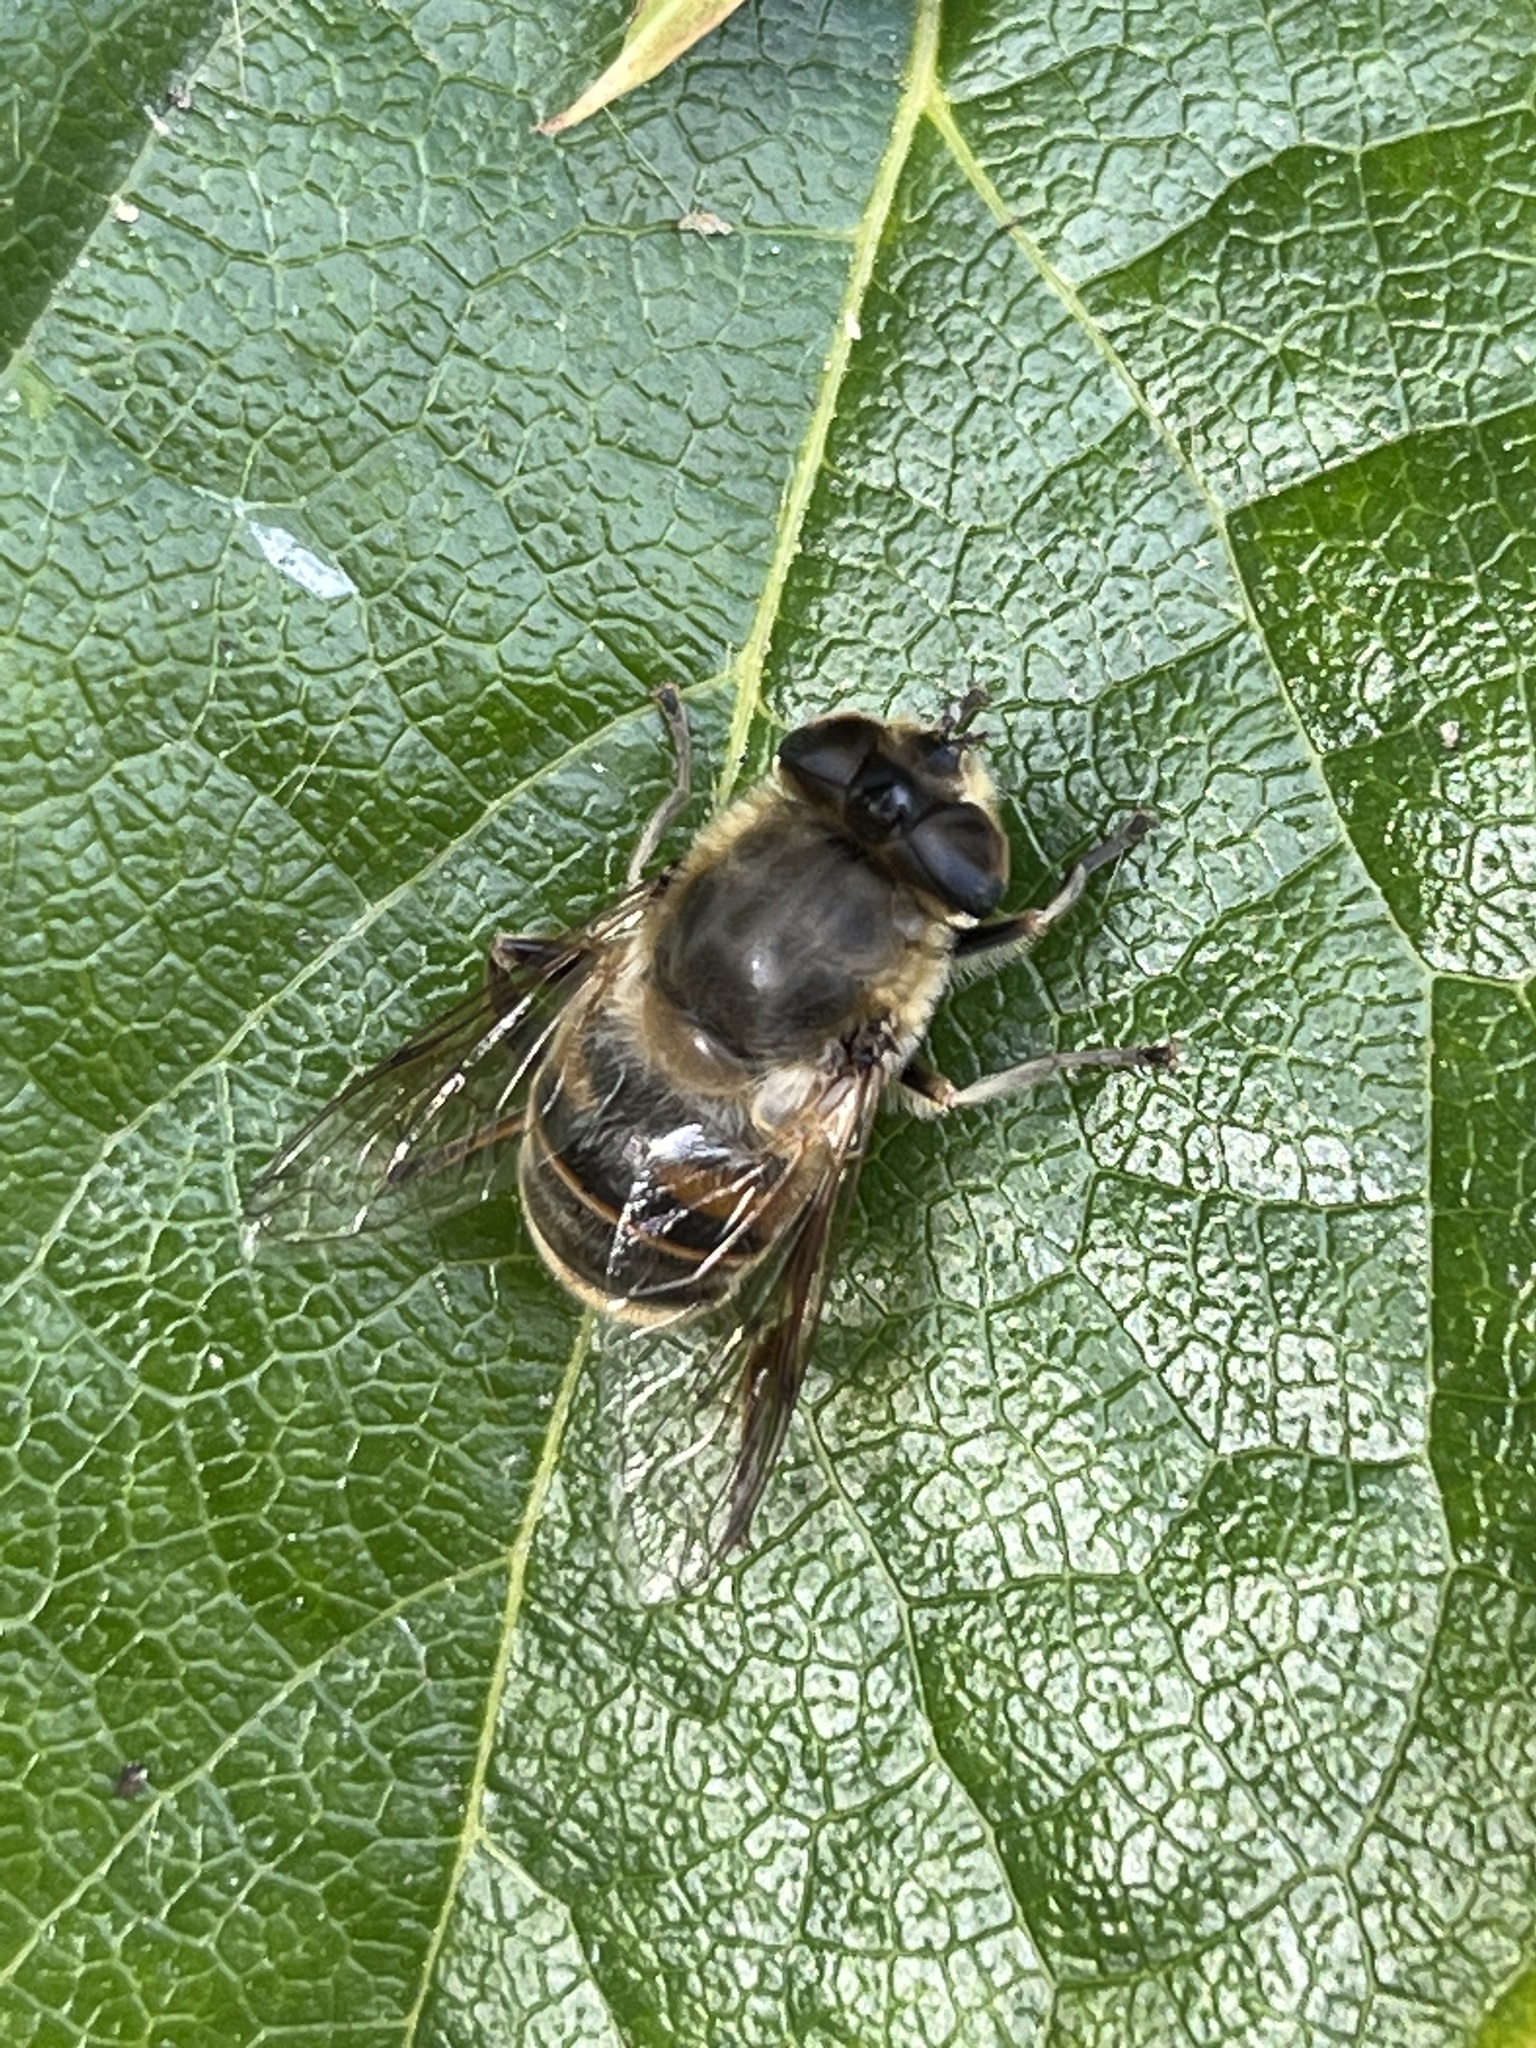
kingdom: Animalia
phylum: Arthropoda
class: Insecta
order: Diptera
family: Syrphidae
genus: Eristalis
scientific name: Eristalis tenax
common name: Drone fly
